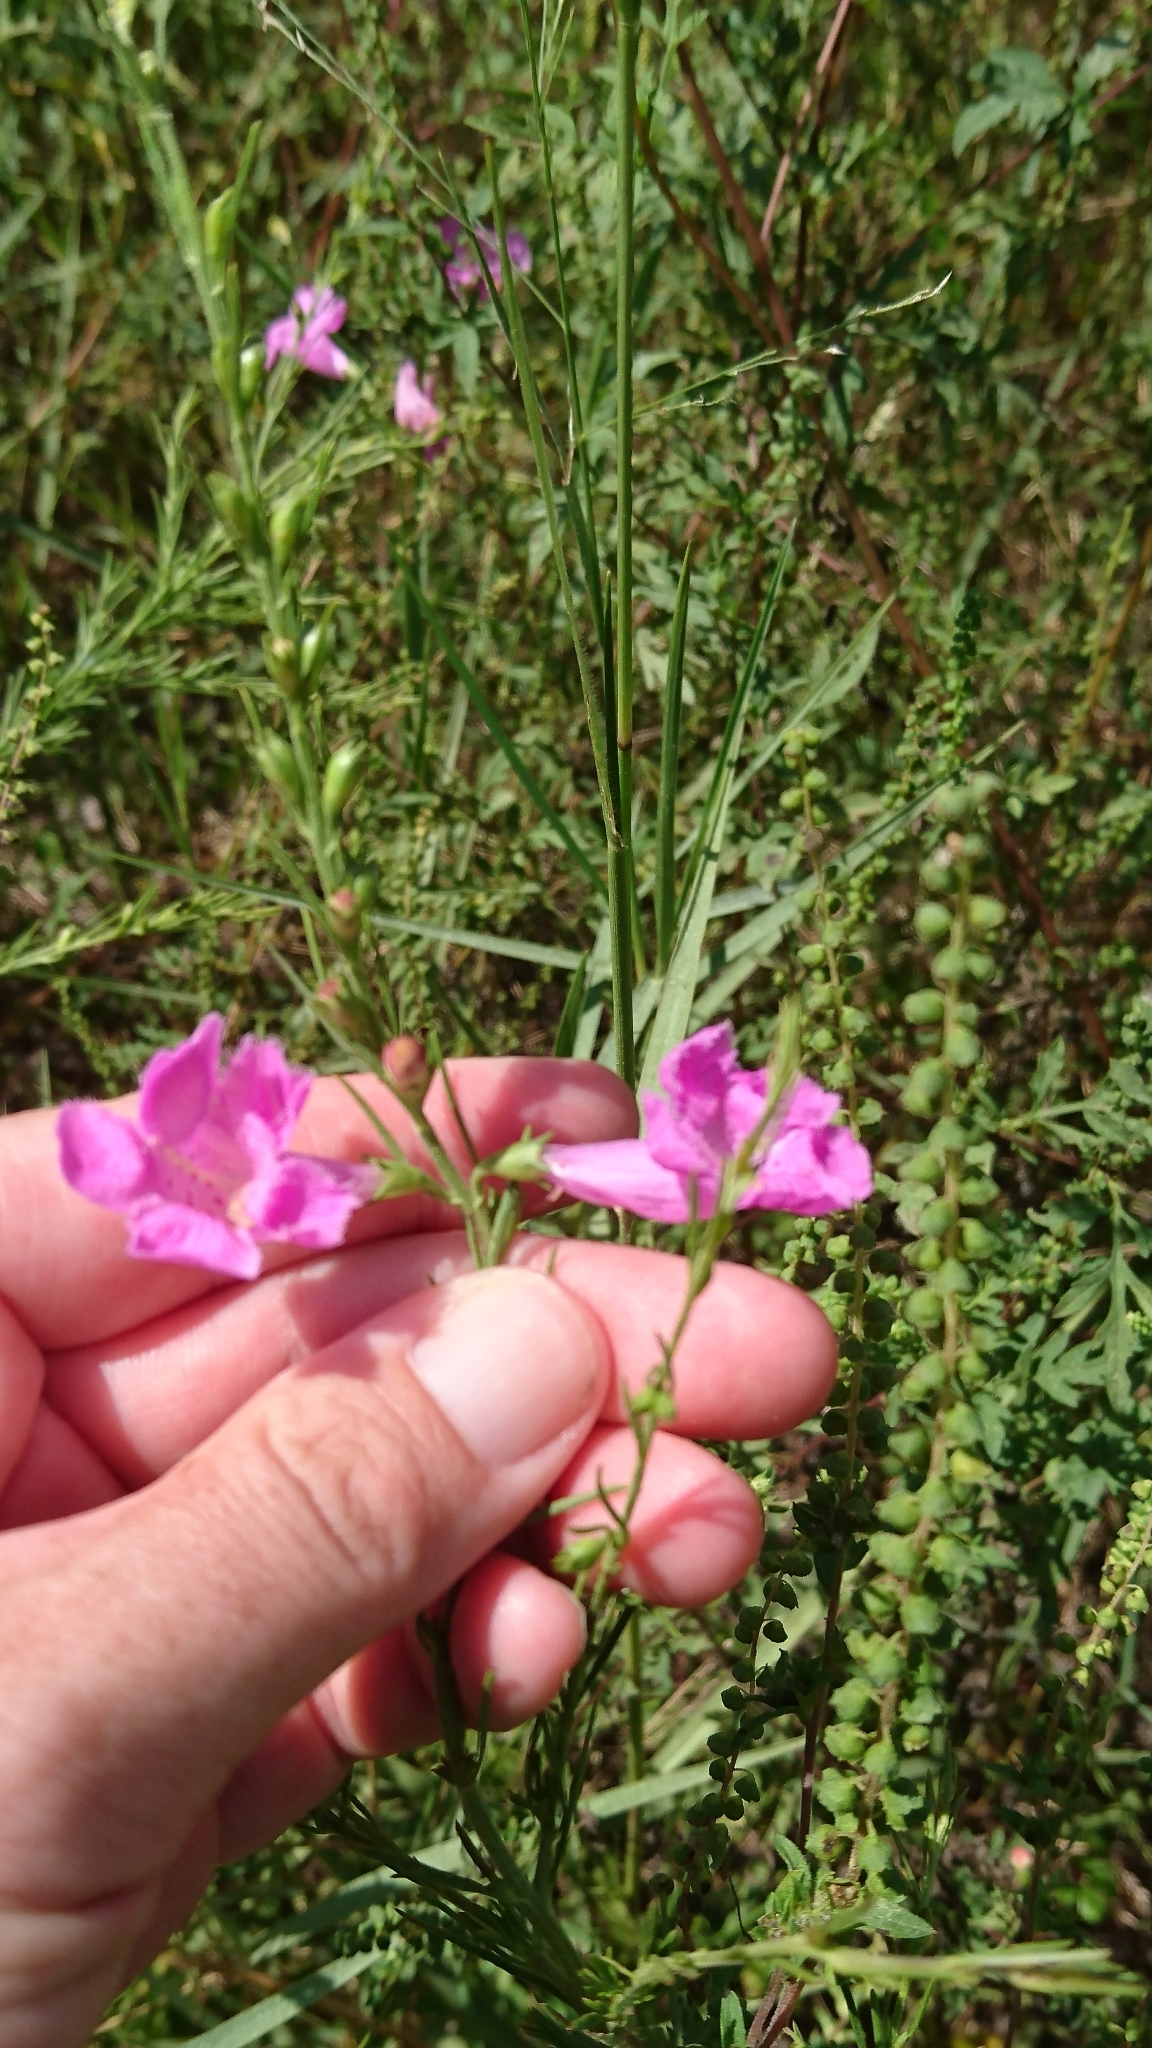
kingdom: Plantae
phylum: Tracheophyta
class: Magnoliopsida
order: Lamiales
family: Orobanchaceae
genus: Agalinis
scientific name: Agalinis fasciculata
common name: Beach false foxglove
